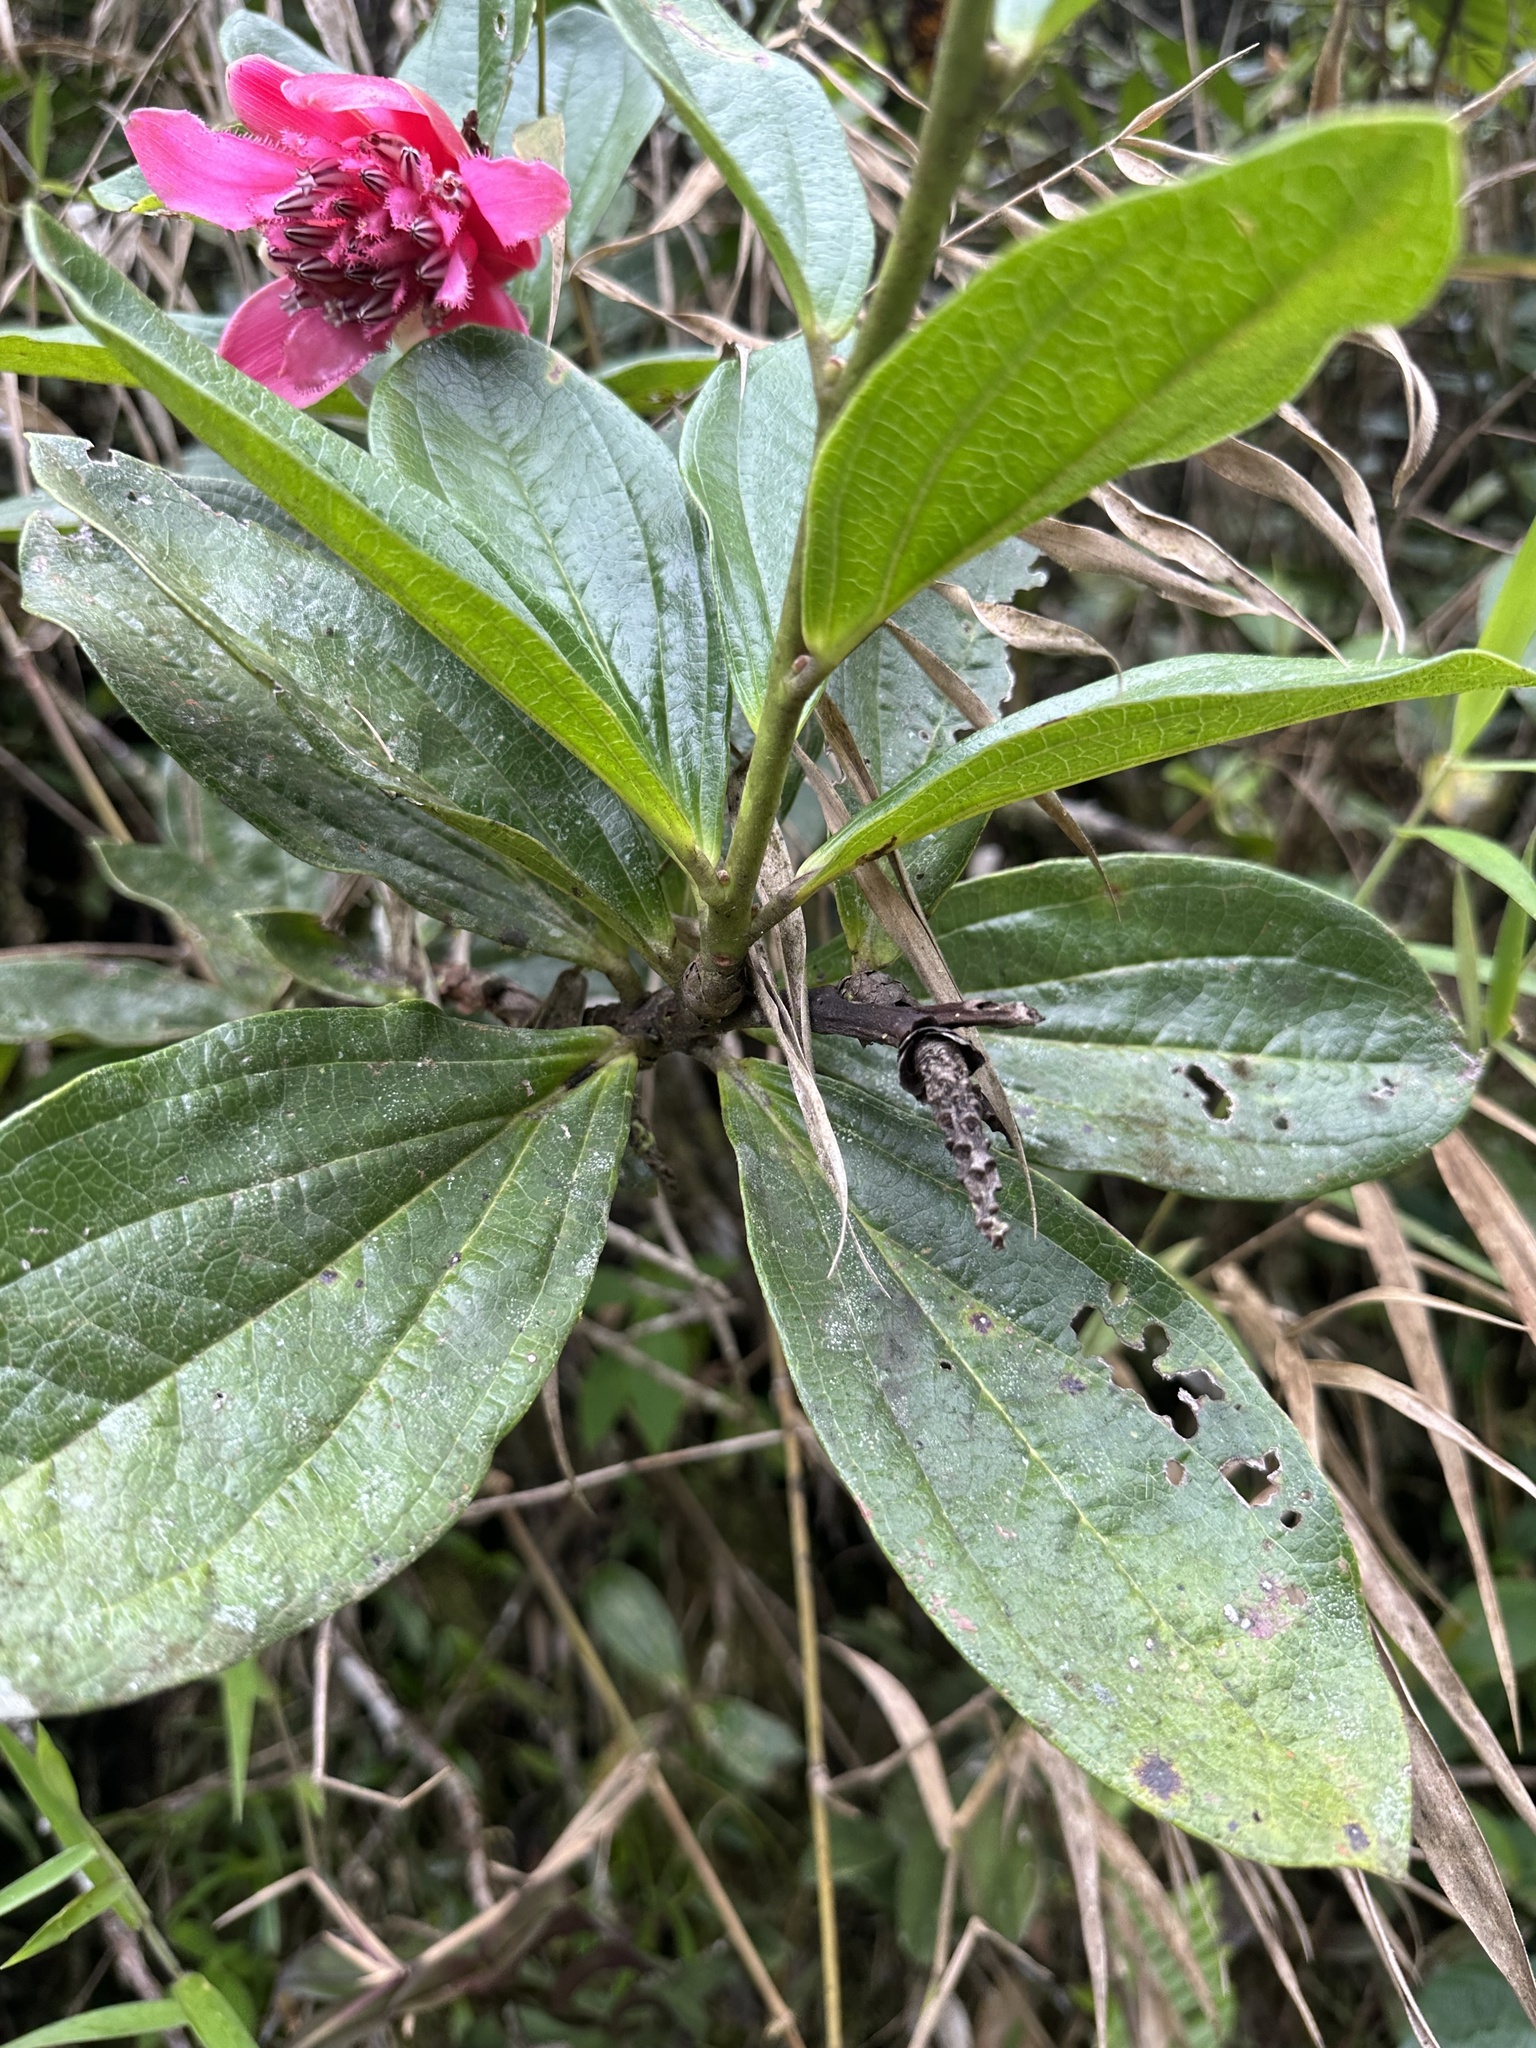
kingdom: Plantae
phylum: Tracheophyta
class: Magnoliopsida
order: Ericales
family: Ericaceae
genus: Cavendishia
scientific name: Cavendishia adenophora
